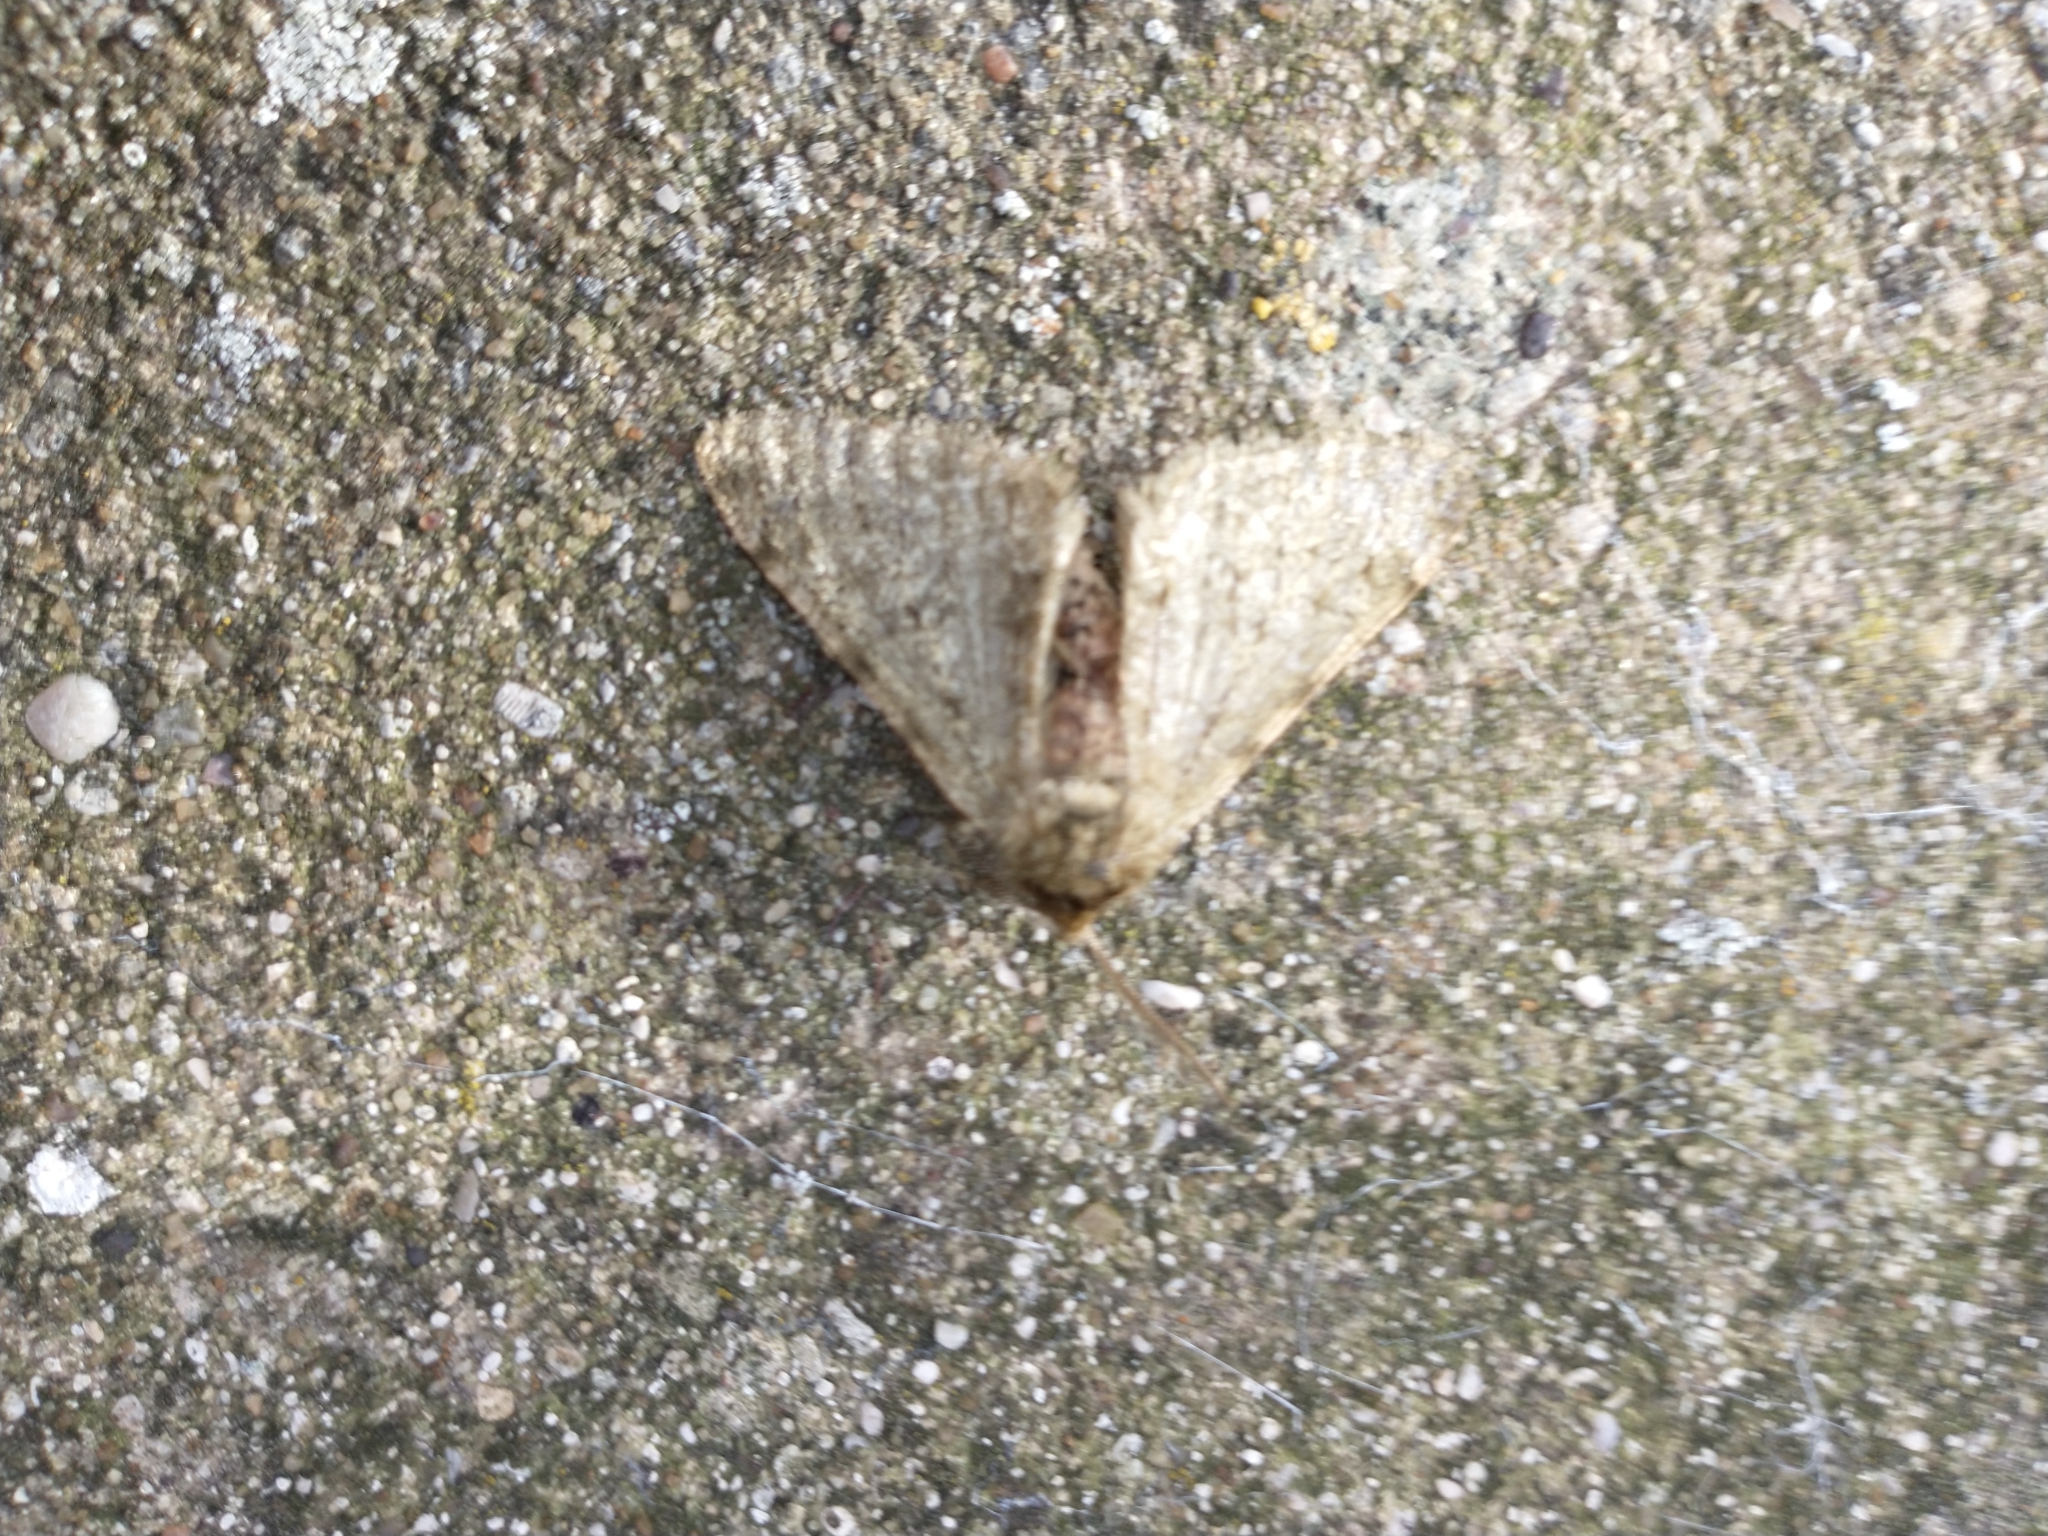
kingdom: Animalia
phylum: Arthropoda
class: Insecta
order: Lepidoptera
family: Geometridae
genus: Phigalia
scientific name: Phigalia pilosaria
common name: Pale brindled beauty
